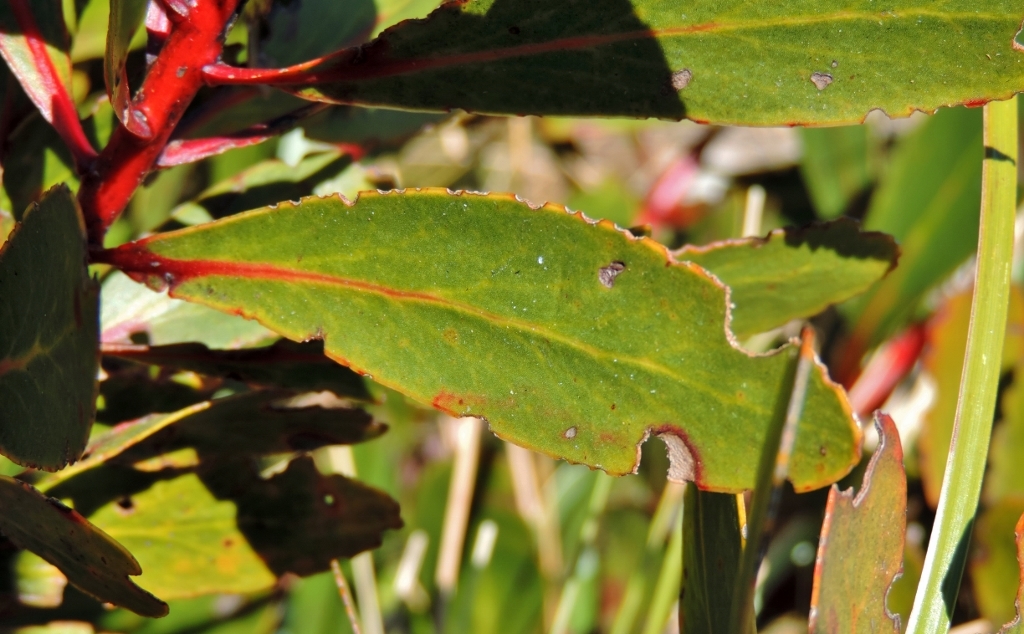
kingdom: Plantae
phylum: Tracheophyta
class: Magnoliopsida
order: Proteales
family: Proteaceae
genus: Protea
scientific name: Protea dracomontana
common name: Drakensberg dwarf sugarbush
